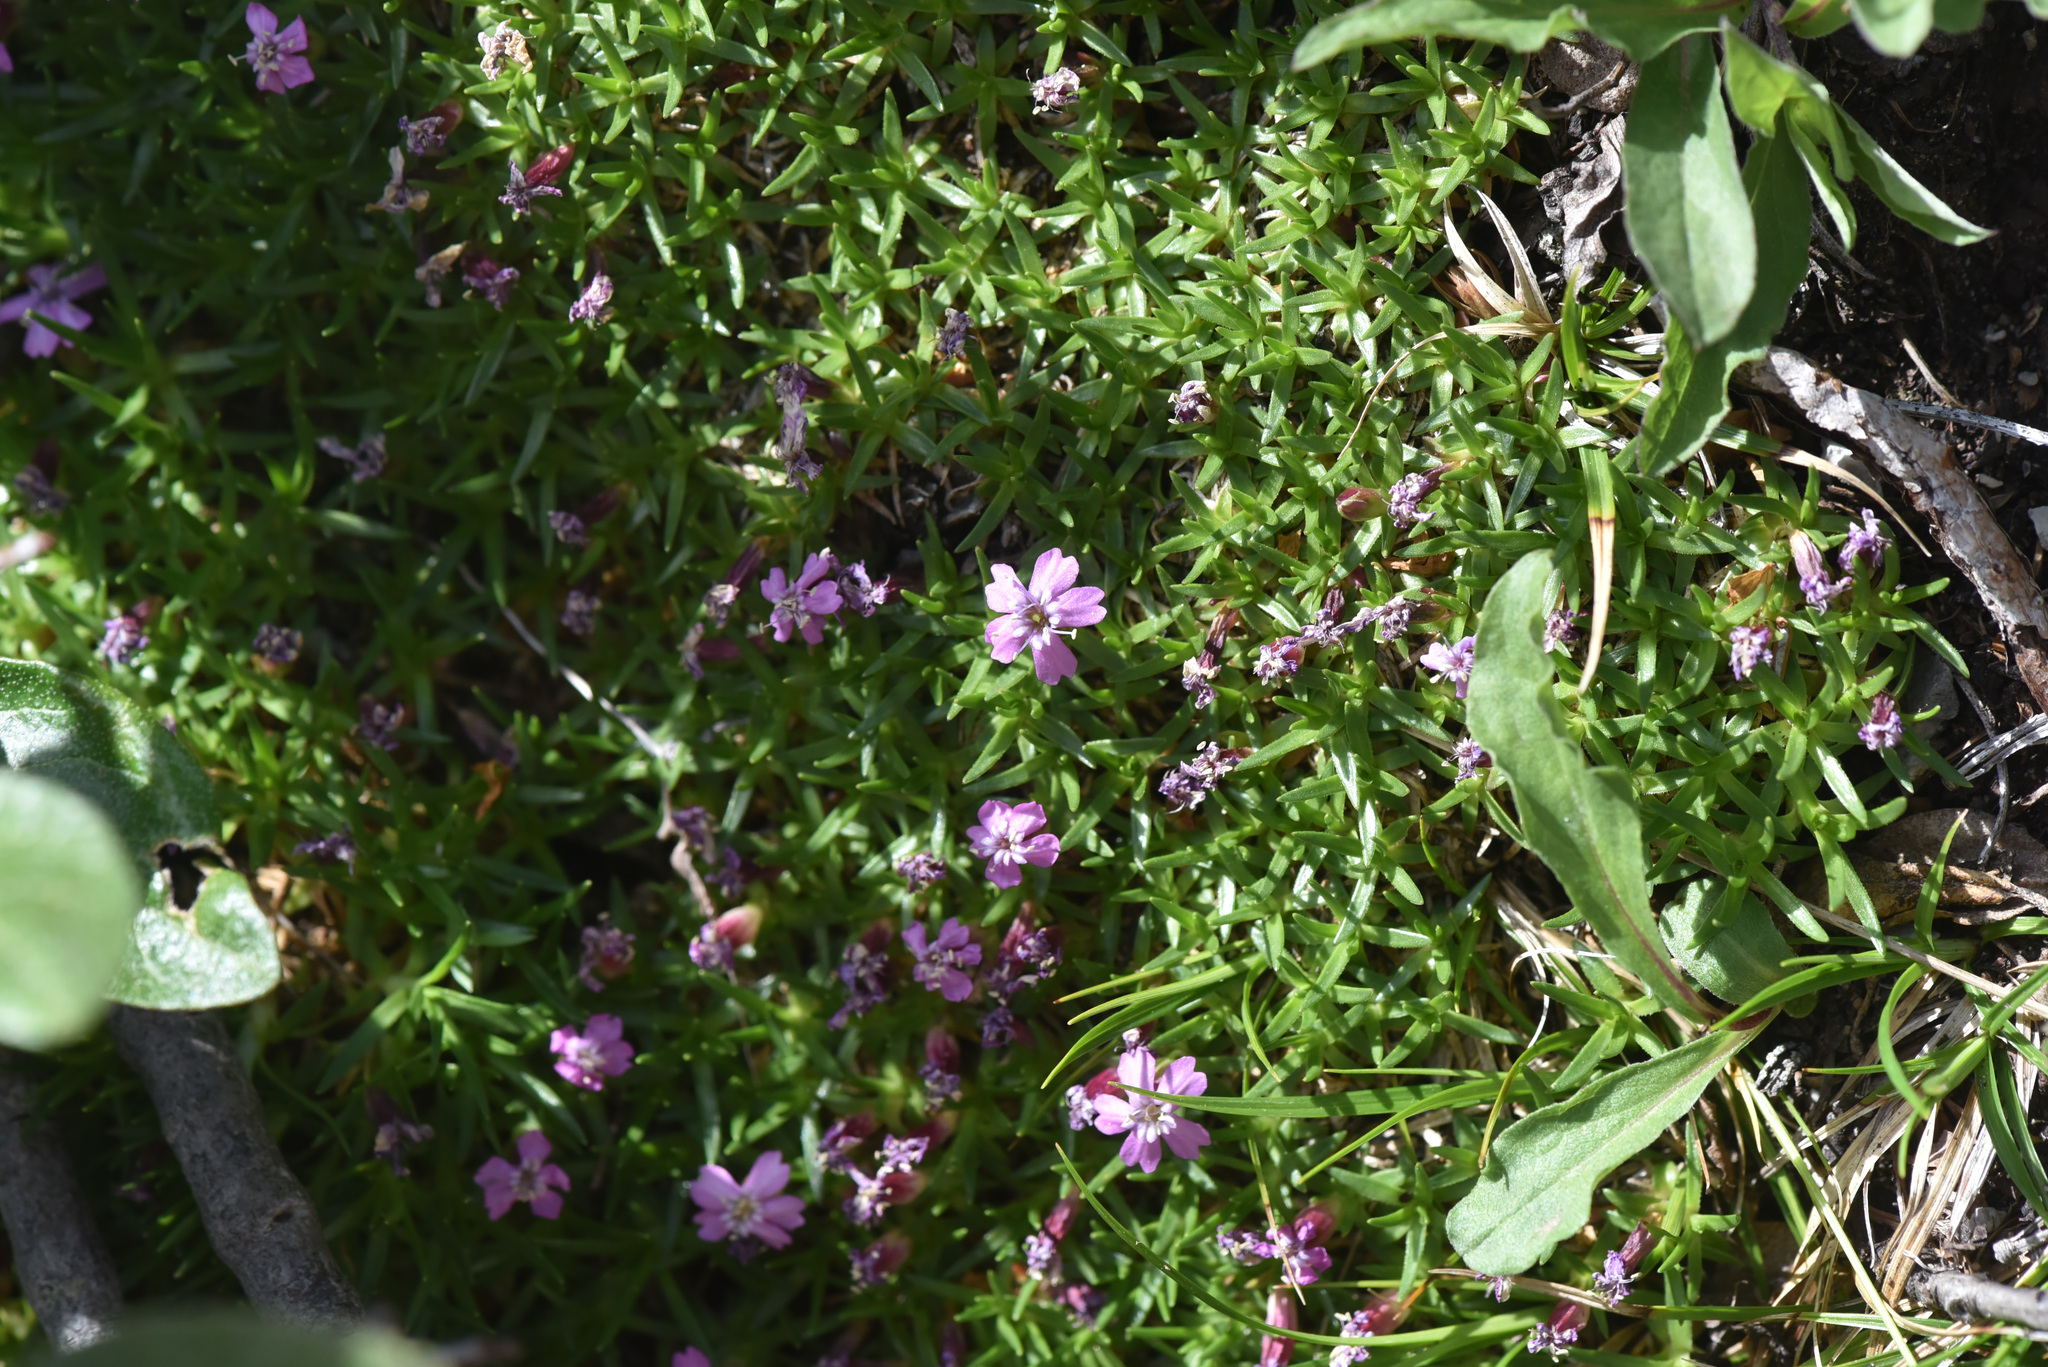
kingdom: Plantae
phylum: Tracheophyta
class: Magnoliopsida
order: Caryophyllales
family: Caryophyllaceae
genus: Silene
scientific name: Silene acaulis
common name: Moss campion
